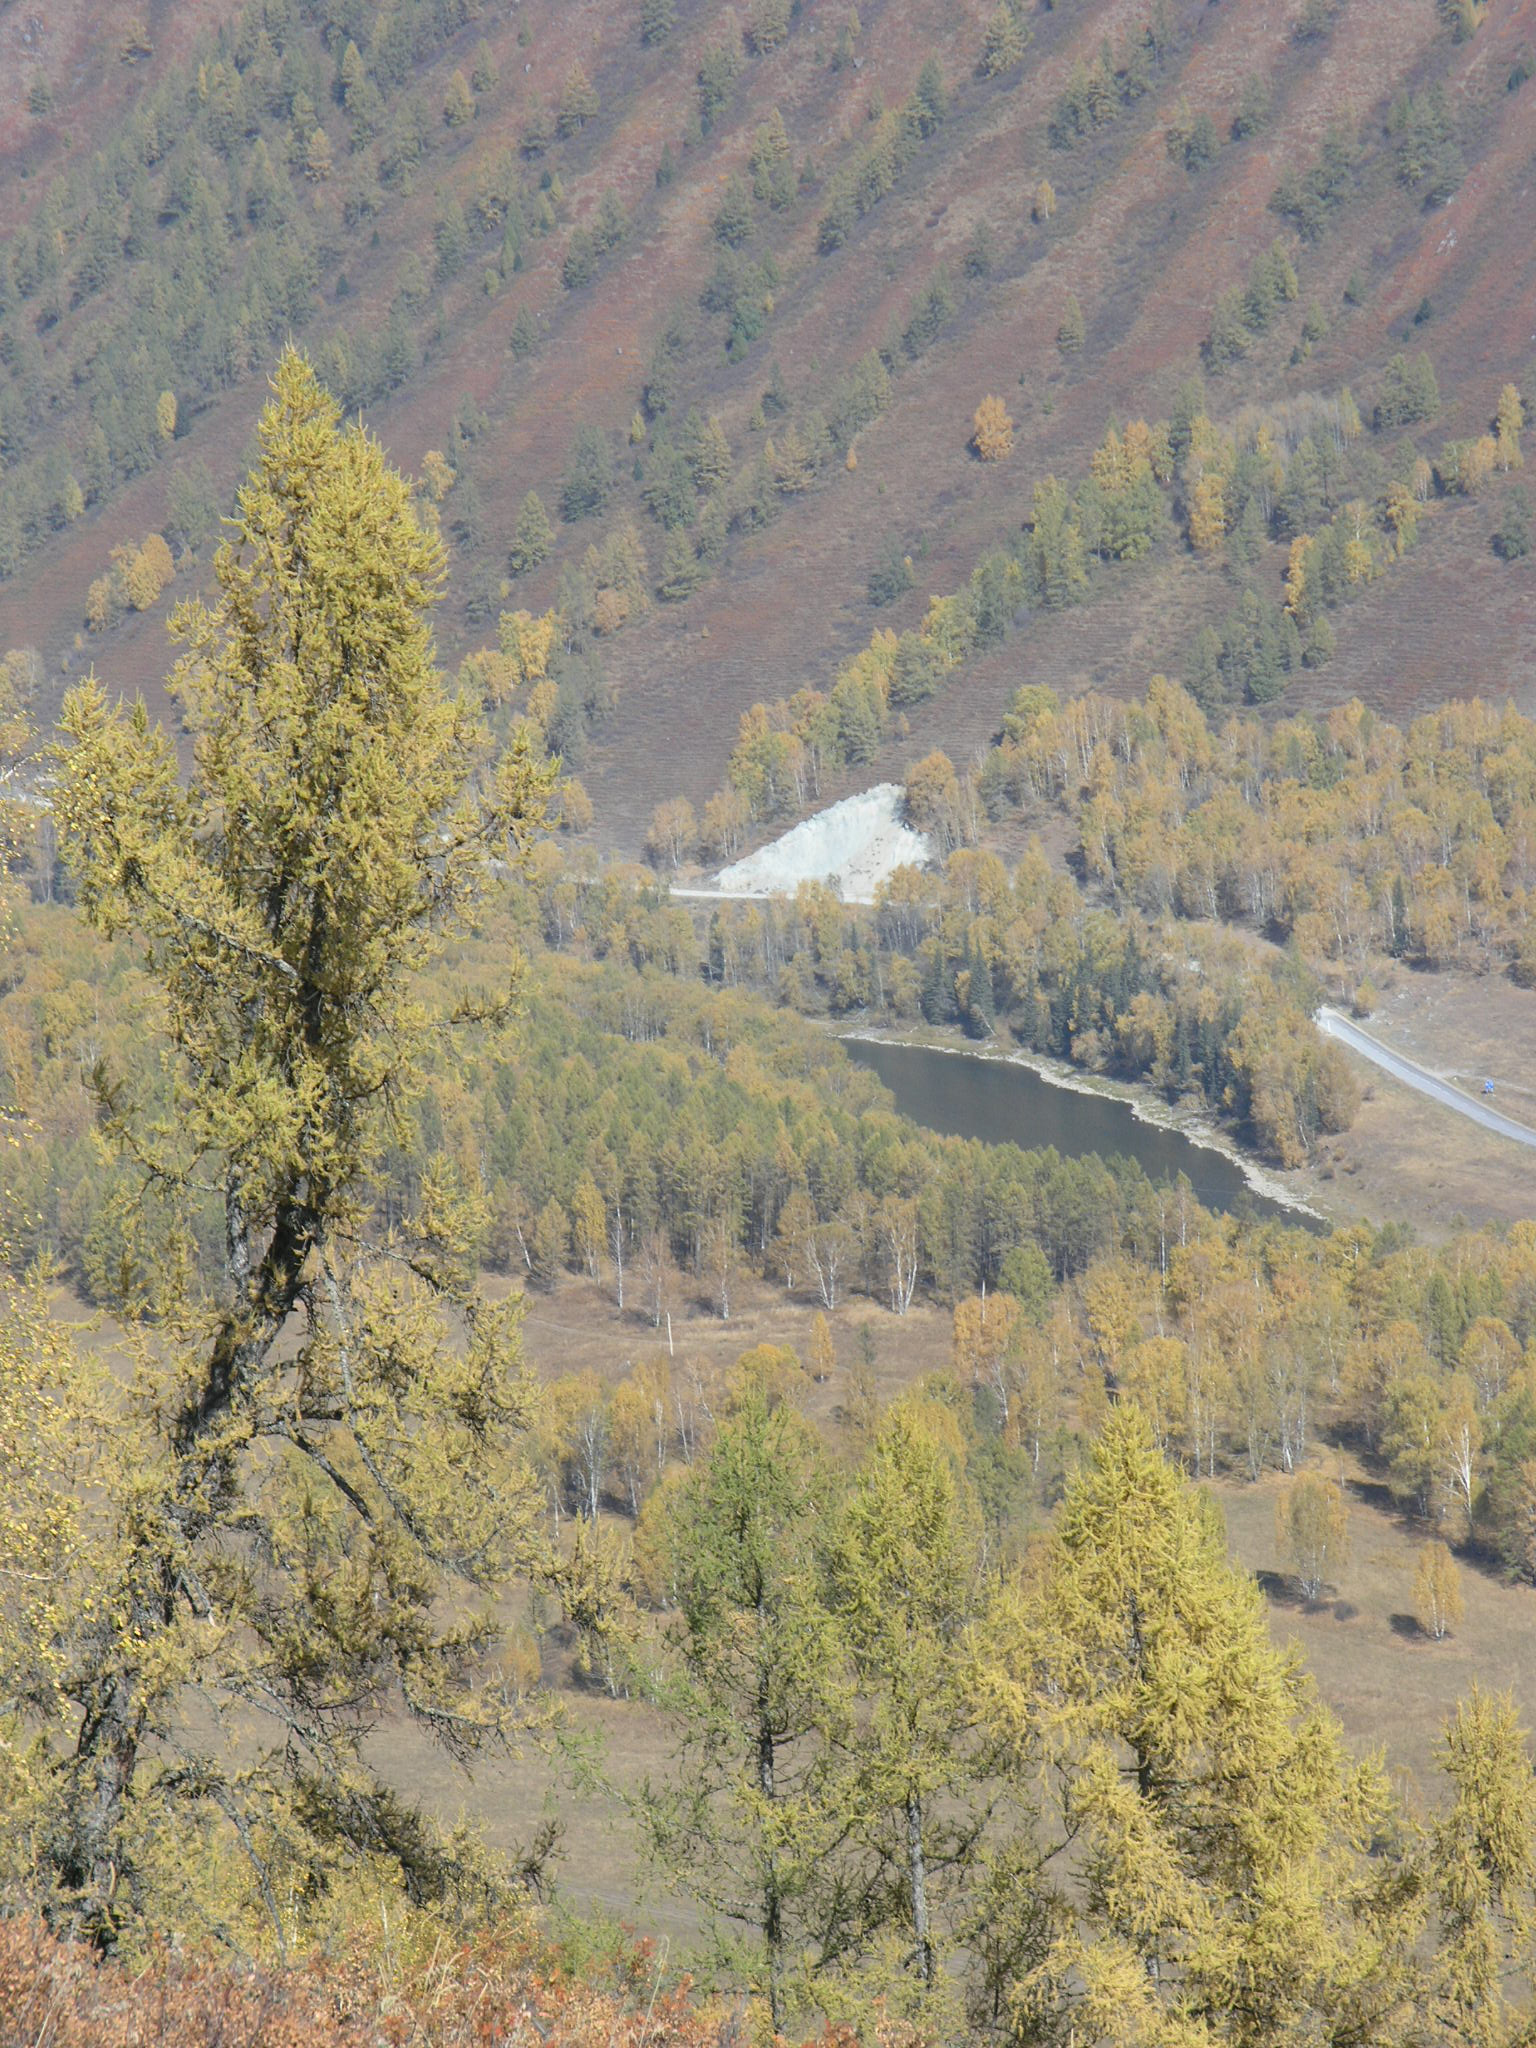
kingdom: Plantae
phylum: Tracheophyta
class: Pinopsida
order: Pinales
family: Pinaceae
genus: Larix
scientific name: Larix sibirica
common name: Siberian larch
